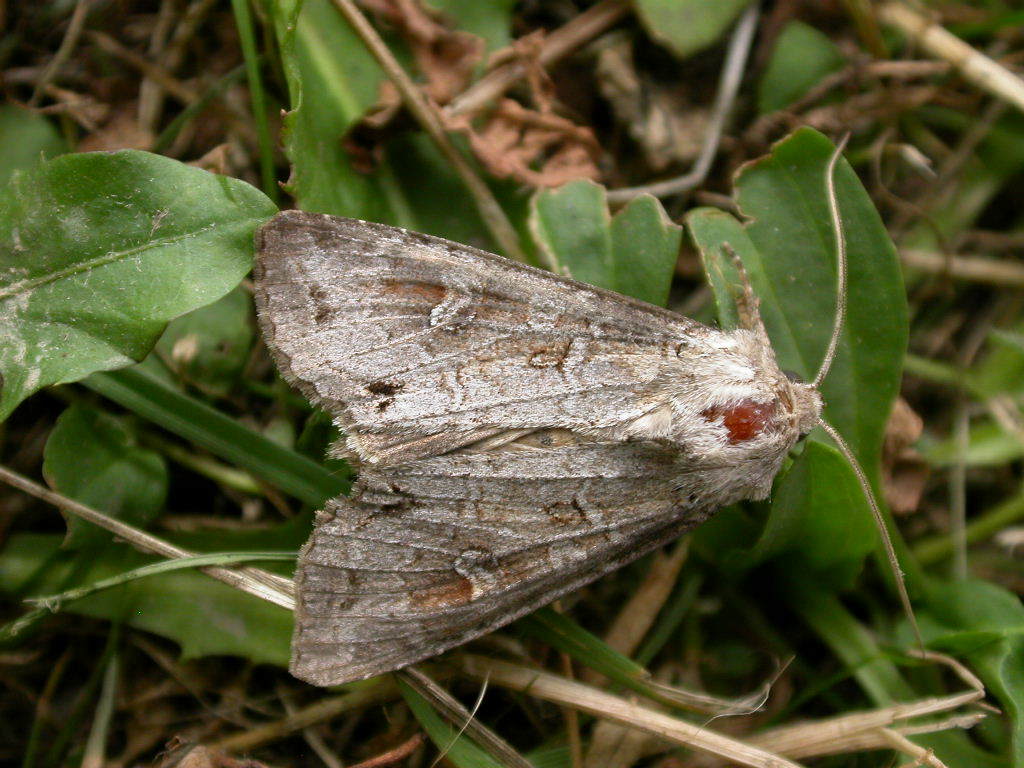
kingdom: Animalia
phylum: Arthropoda
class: Insecta
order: Lepidoptera
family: Noctuidae
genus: Polia
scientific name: Polia bombycina
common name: Pale shining brown
